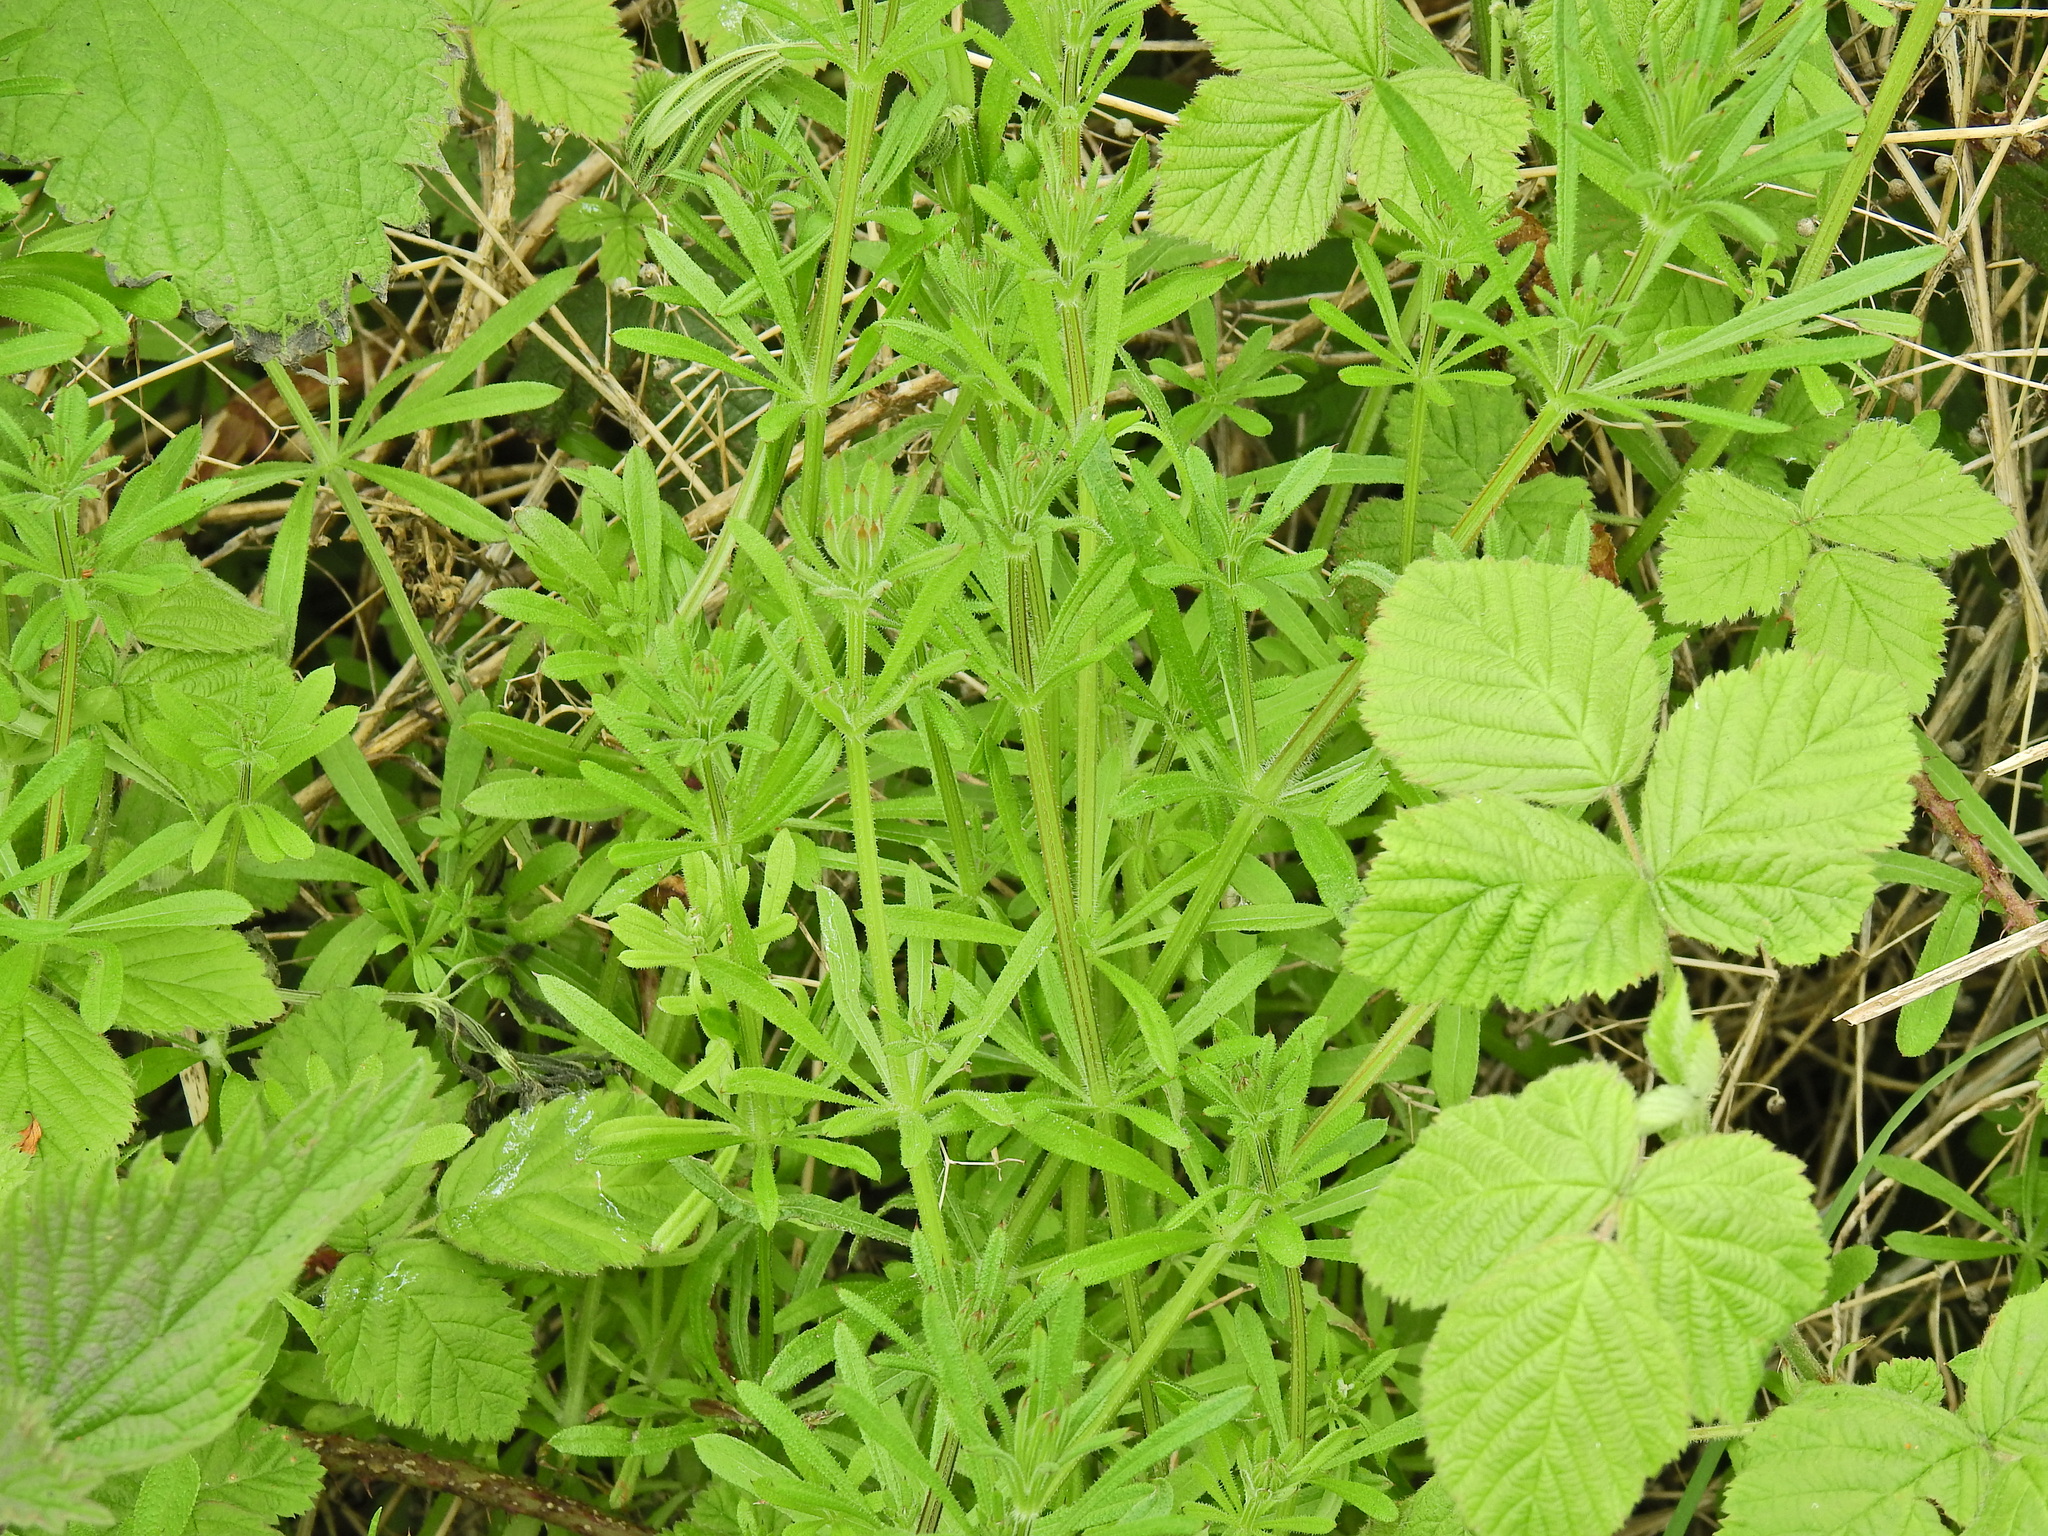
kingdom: Plantae
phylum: Tracheophyta
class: Magnoliopsida
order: Gentianales
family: Rubiaceae
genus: Galium
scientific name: Galium aparine
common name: Cleavers
